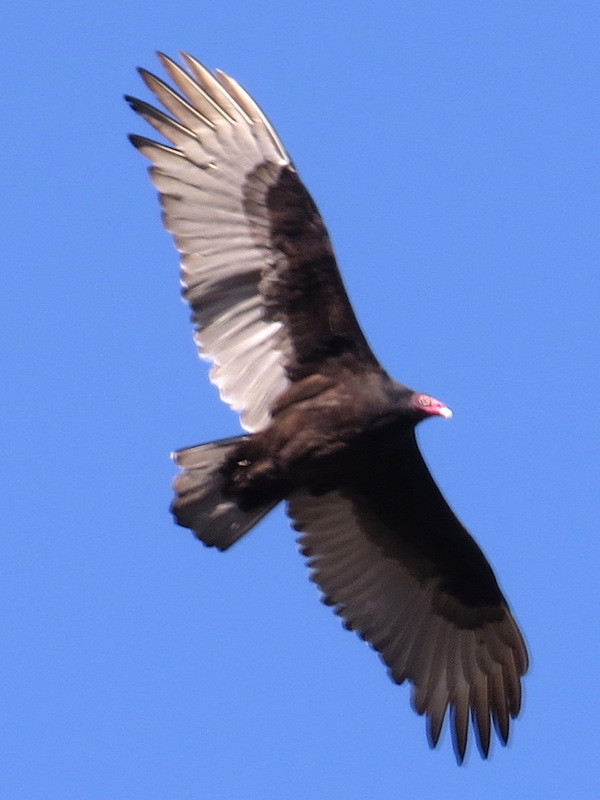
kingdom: Animalia
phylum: Chordata
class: Aves
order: Accipitriformes
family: Cathartidae
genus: Cathartes
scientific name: Cathartes aura
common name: Turkey vulture
